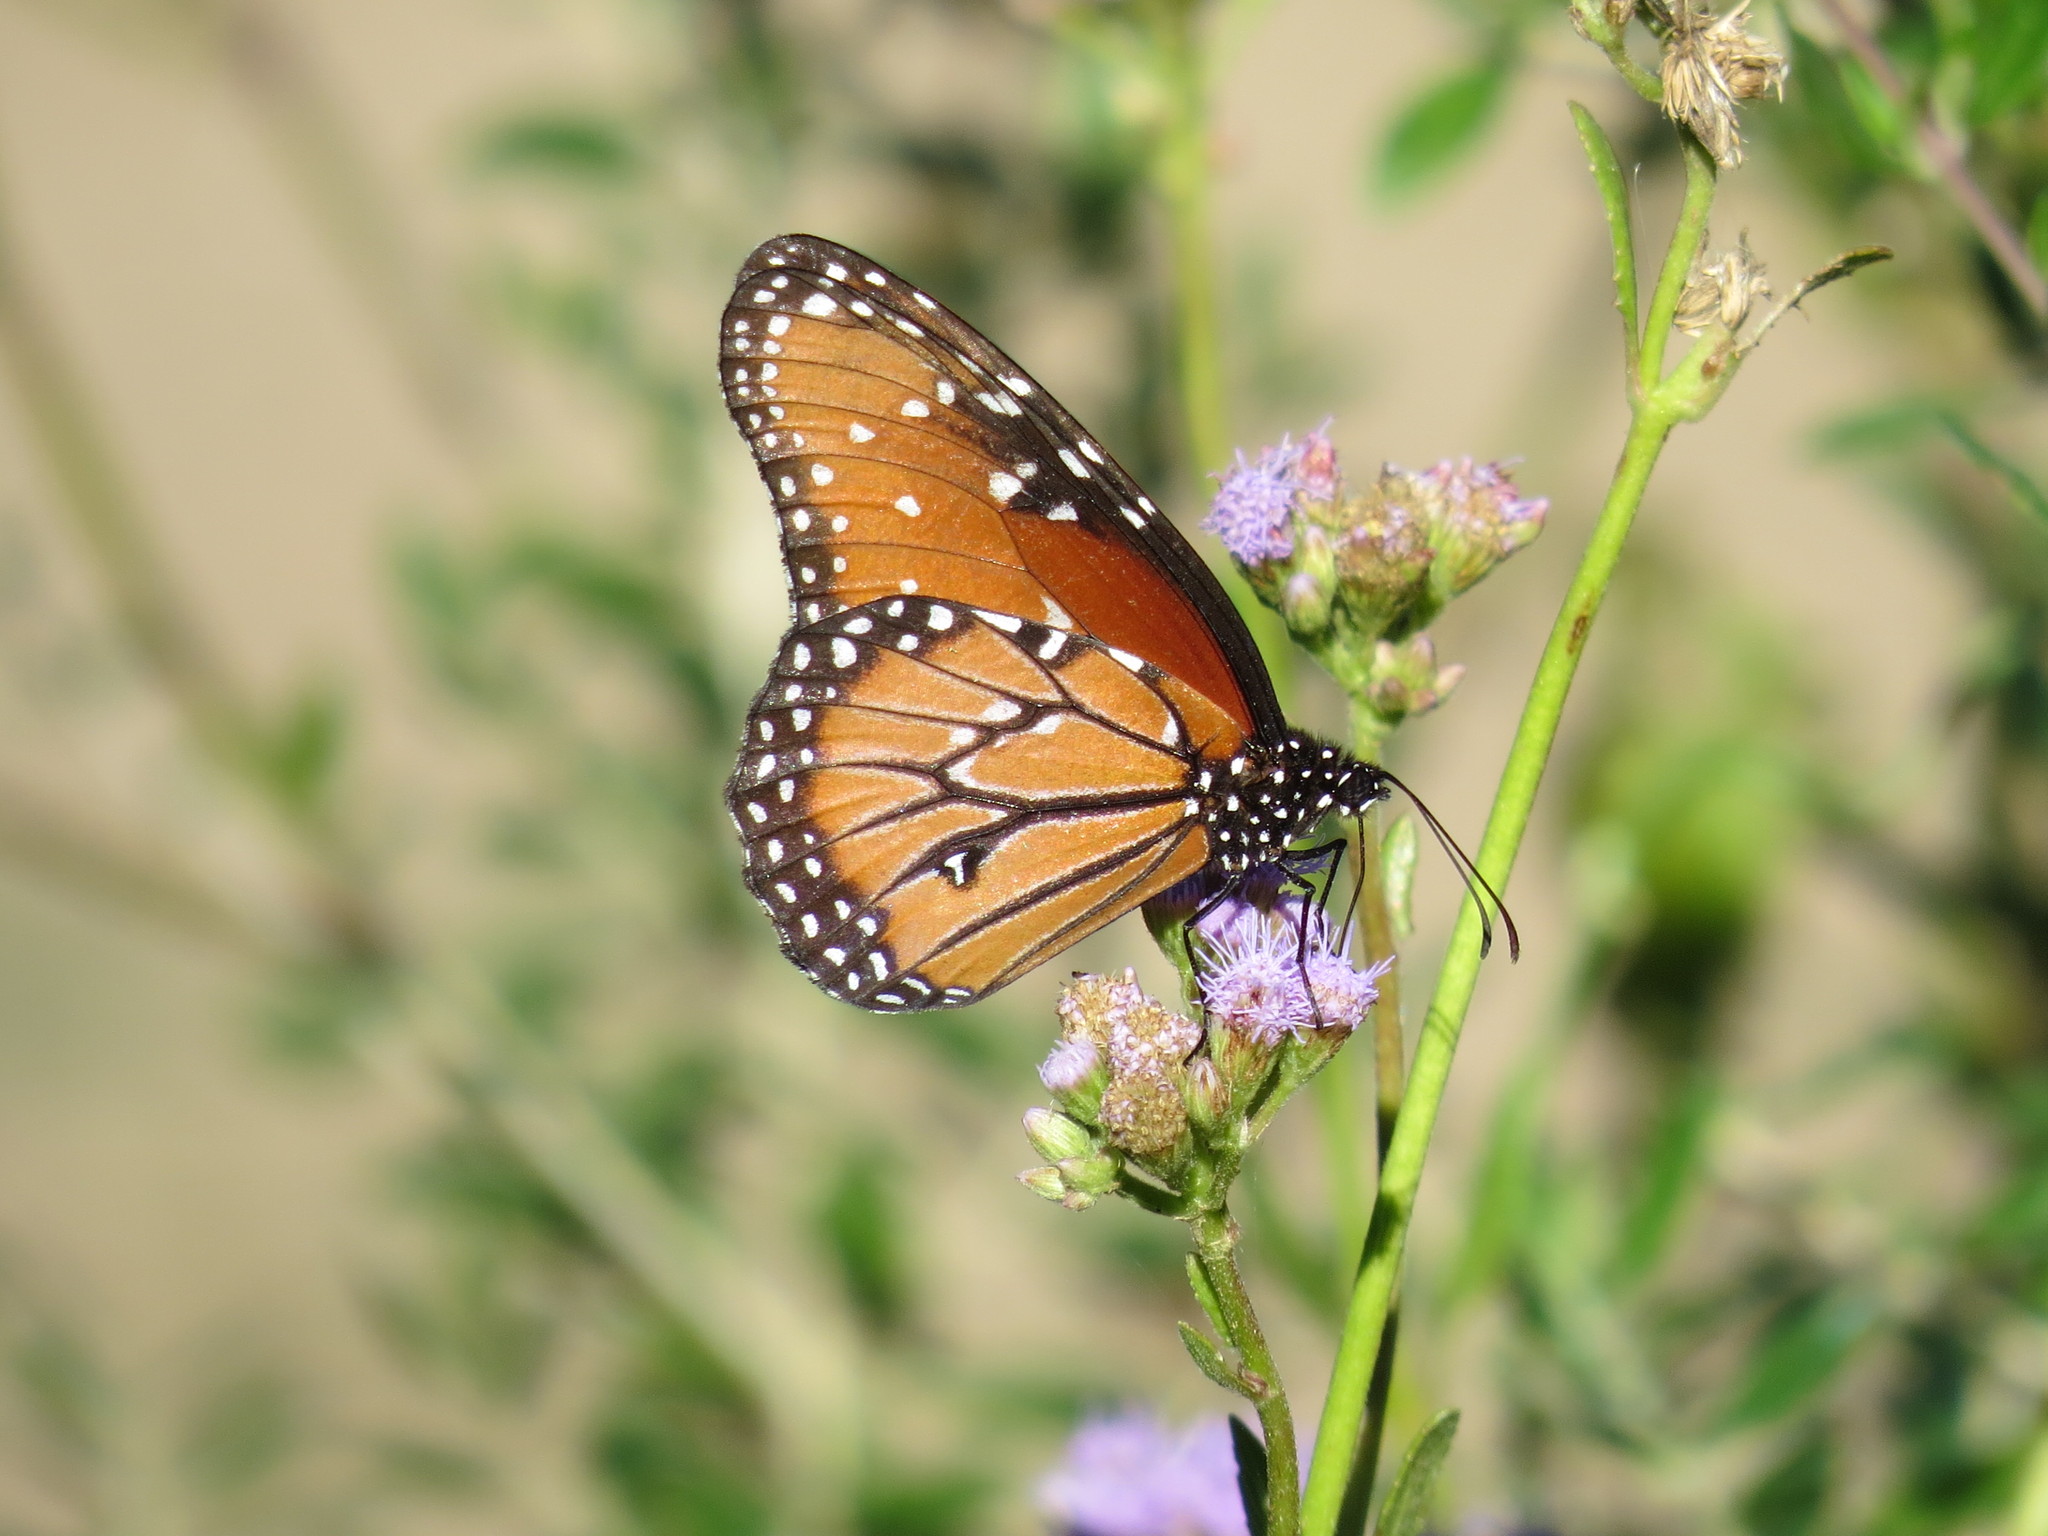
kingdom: Animalia
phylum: Arthropoda
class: Insecta
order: Lepidoptera
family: Nymphalidae
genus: Danaus
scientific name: Danaus gilippus
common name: Queen
